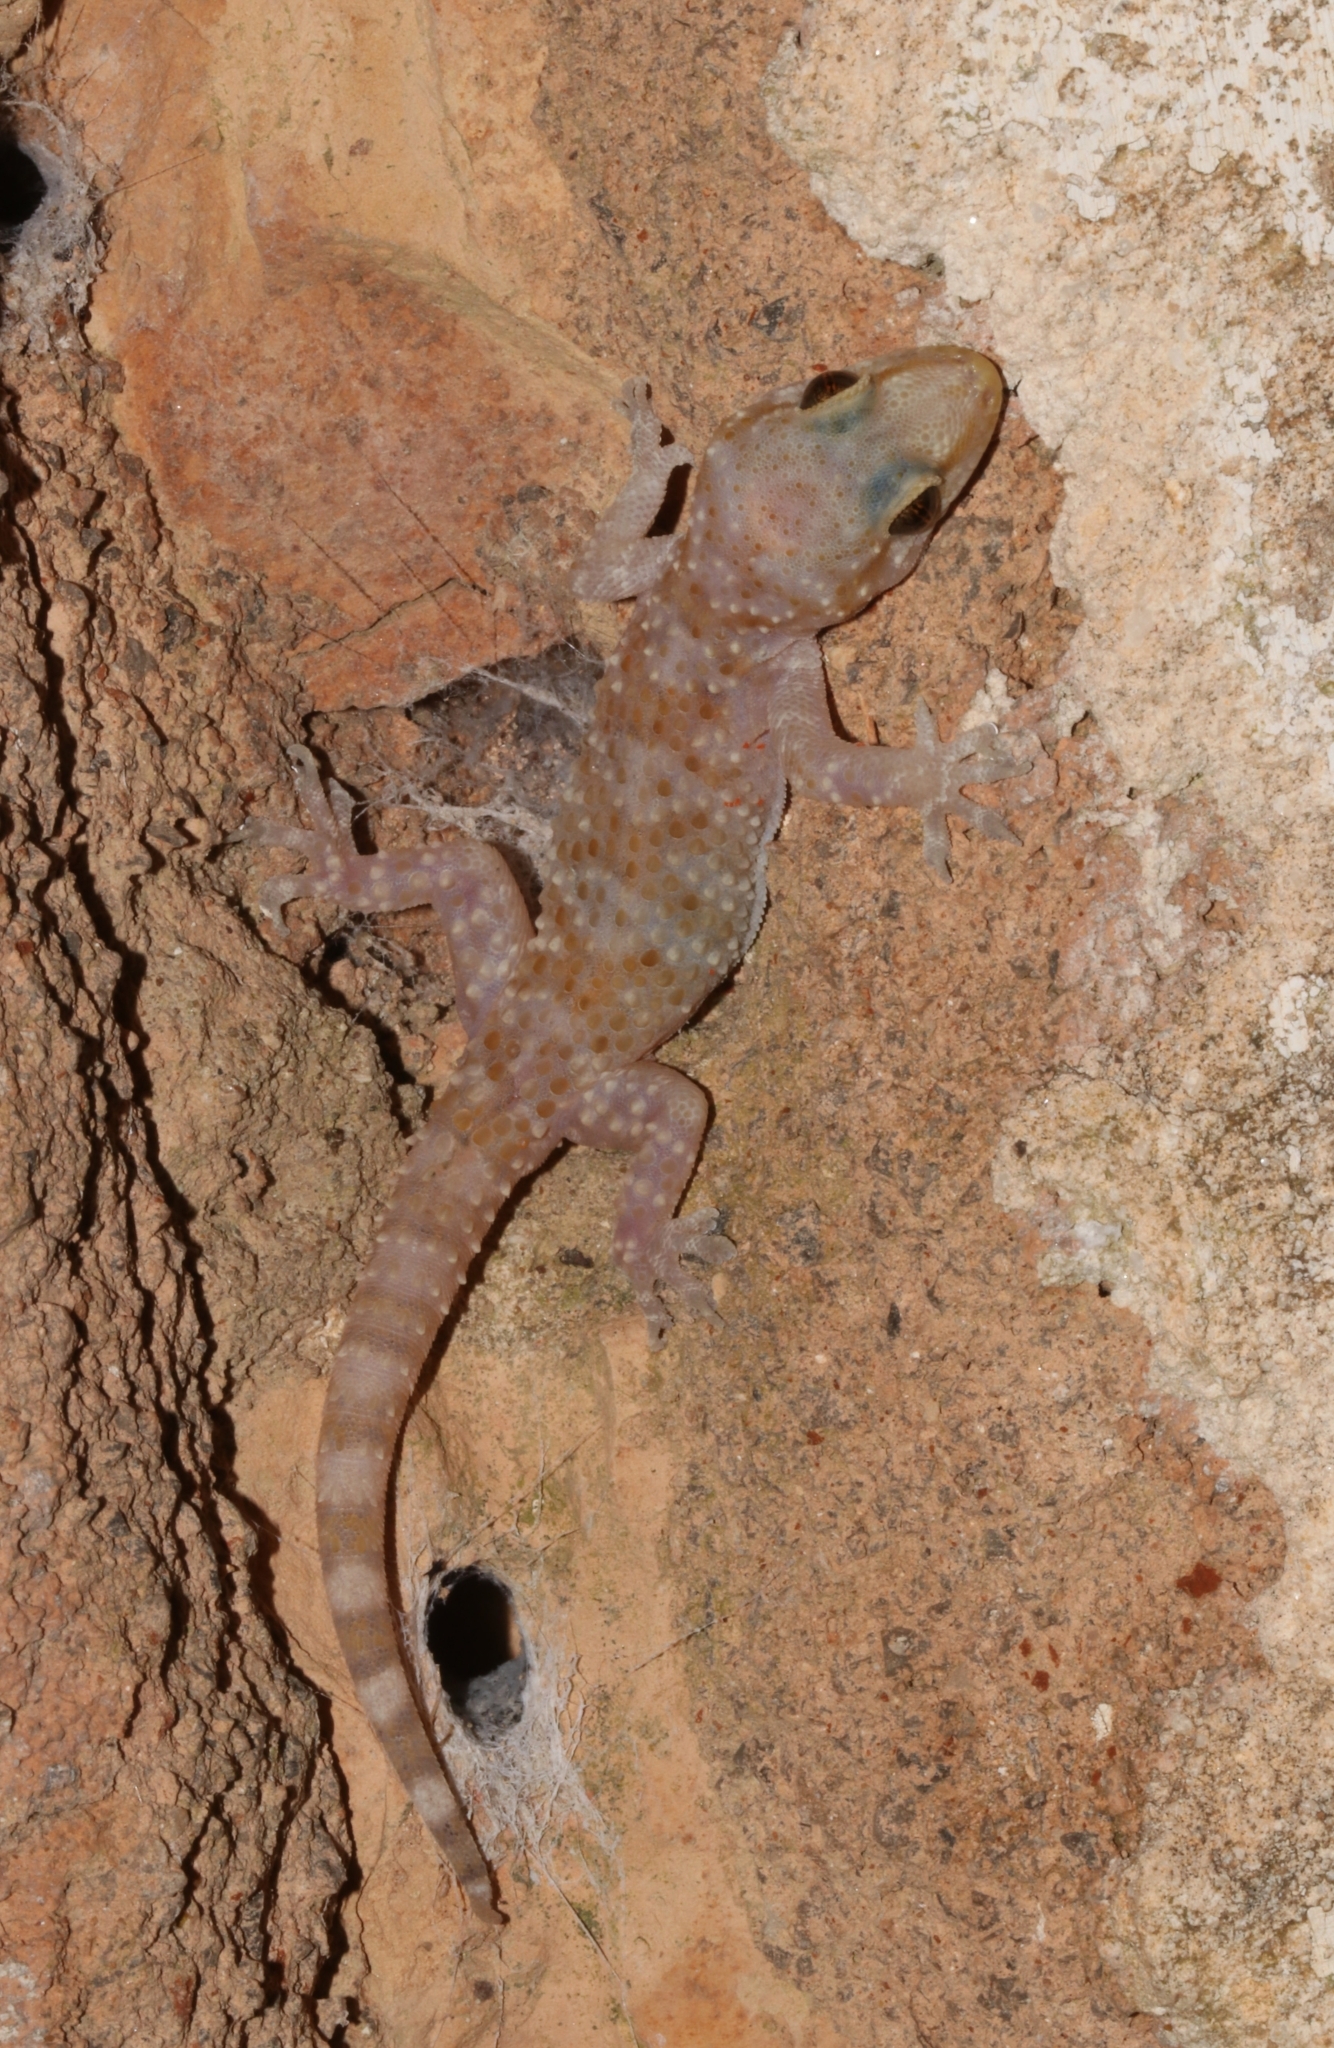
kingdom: Animalia
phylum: Chordata
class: Squamata
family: Gekkonidae
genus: Hemidactylus
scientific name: Hemidactylus turcicus
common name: Turkish gecko
